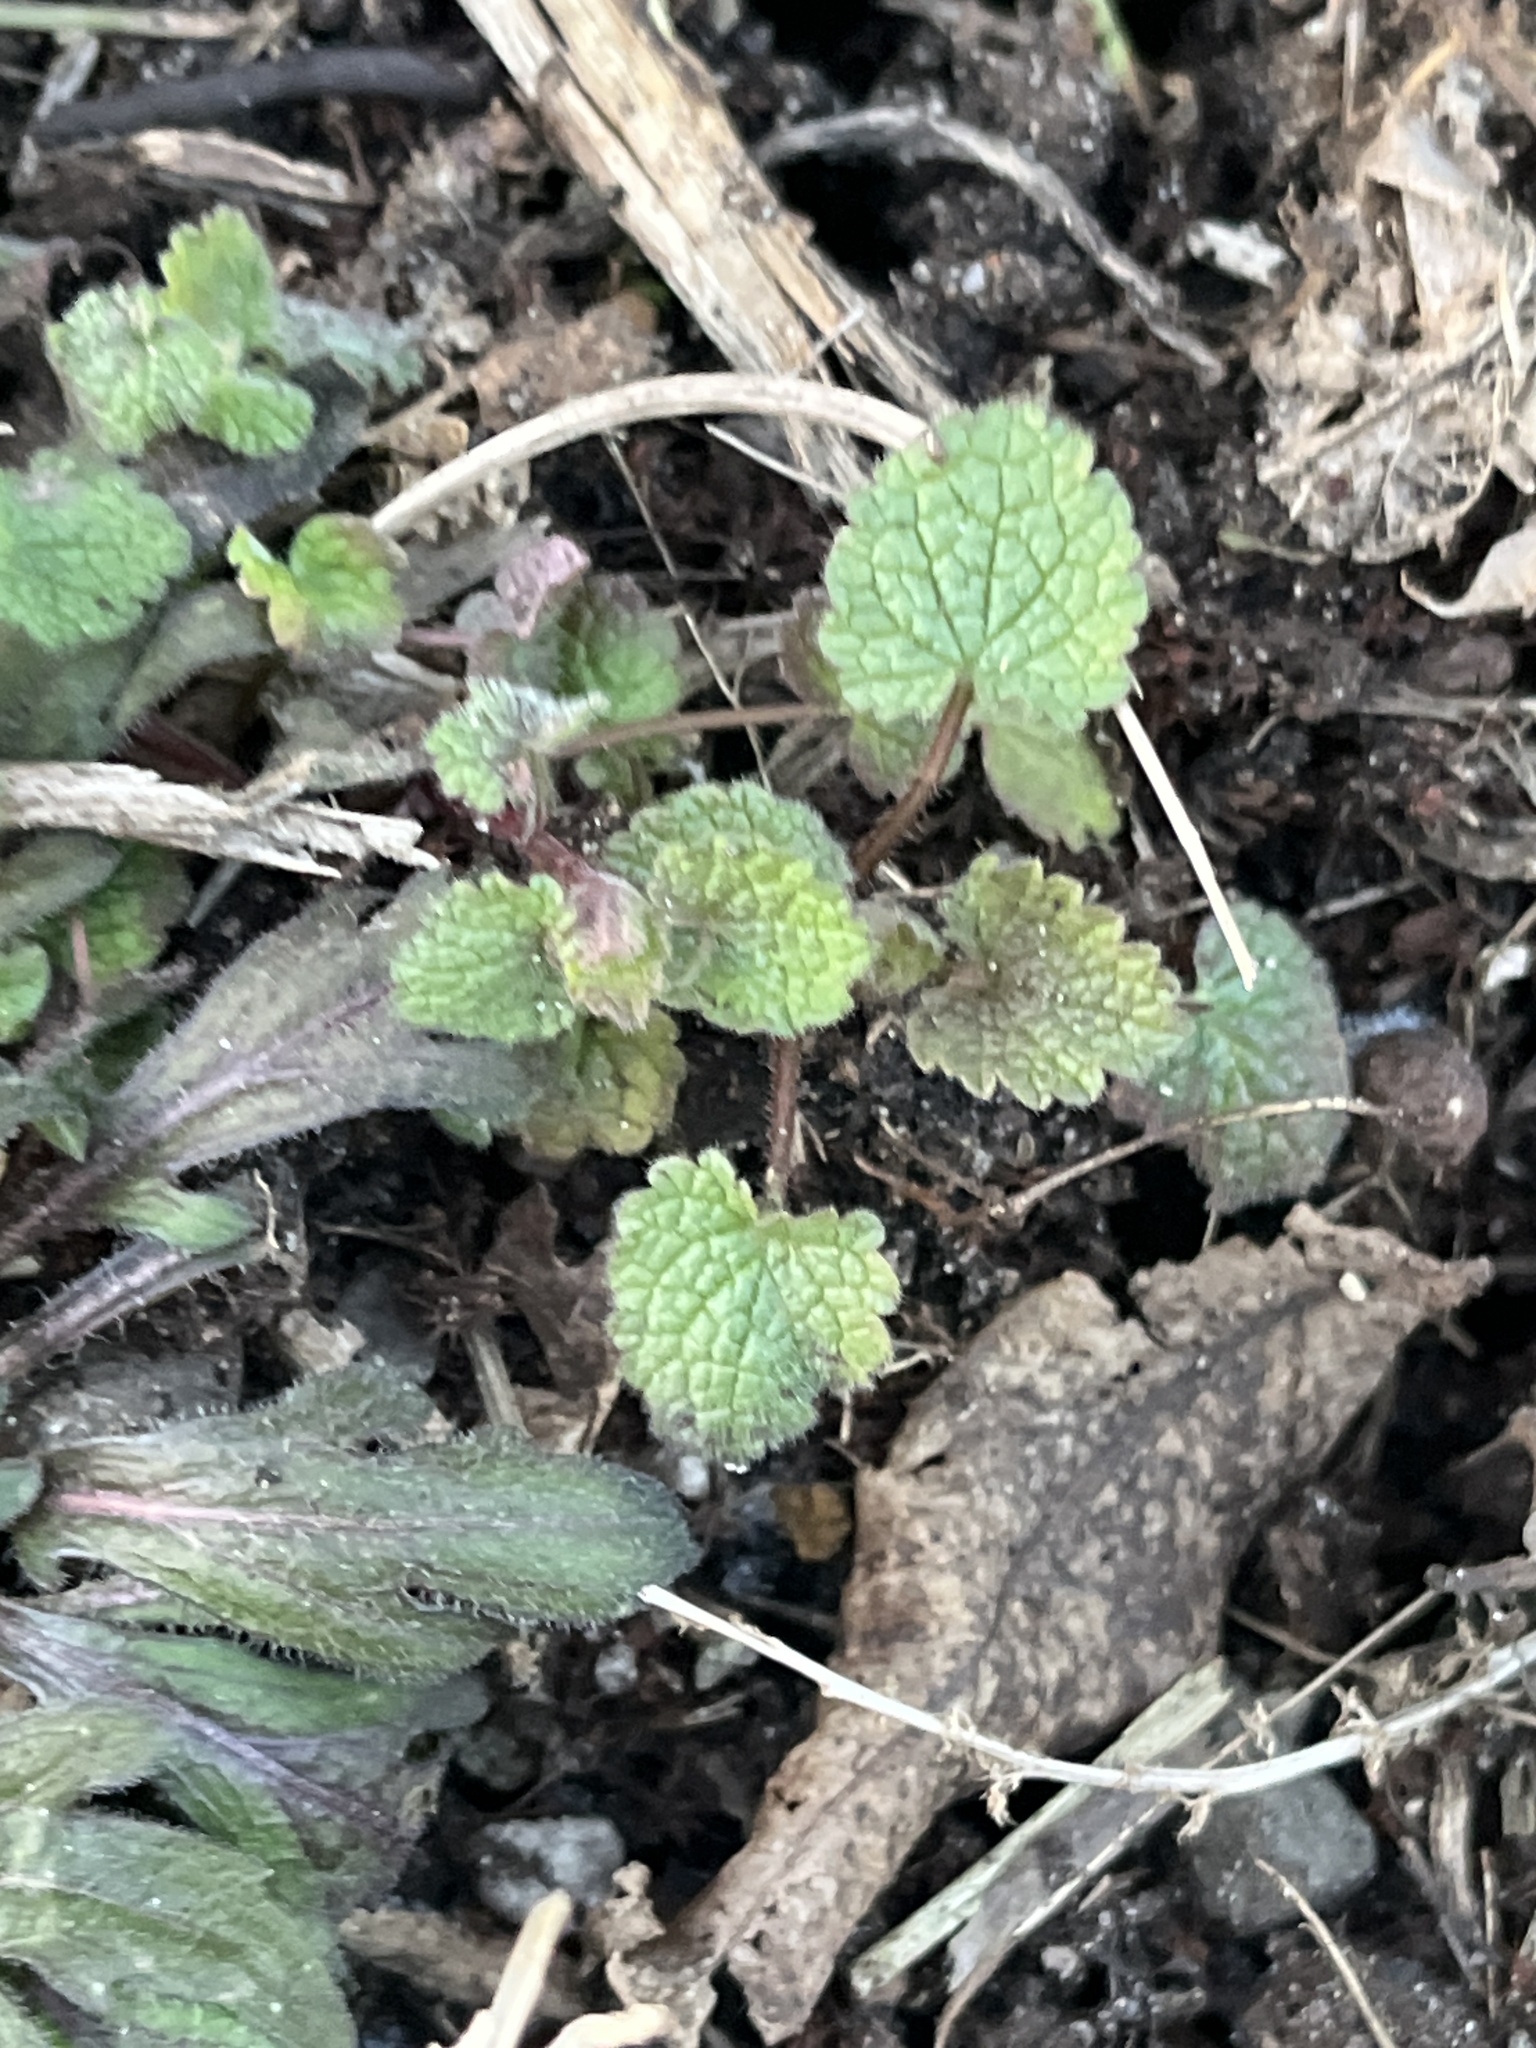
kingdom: Plantae
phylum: Tracheophyta
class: Magnoliopsida
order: Lamiales
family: Lamiaceae
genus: Lamium
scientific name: Lamium purpureum
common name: Red dead-nettle
